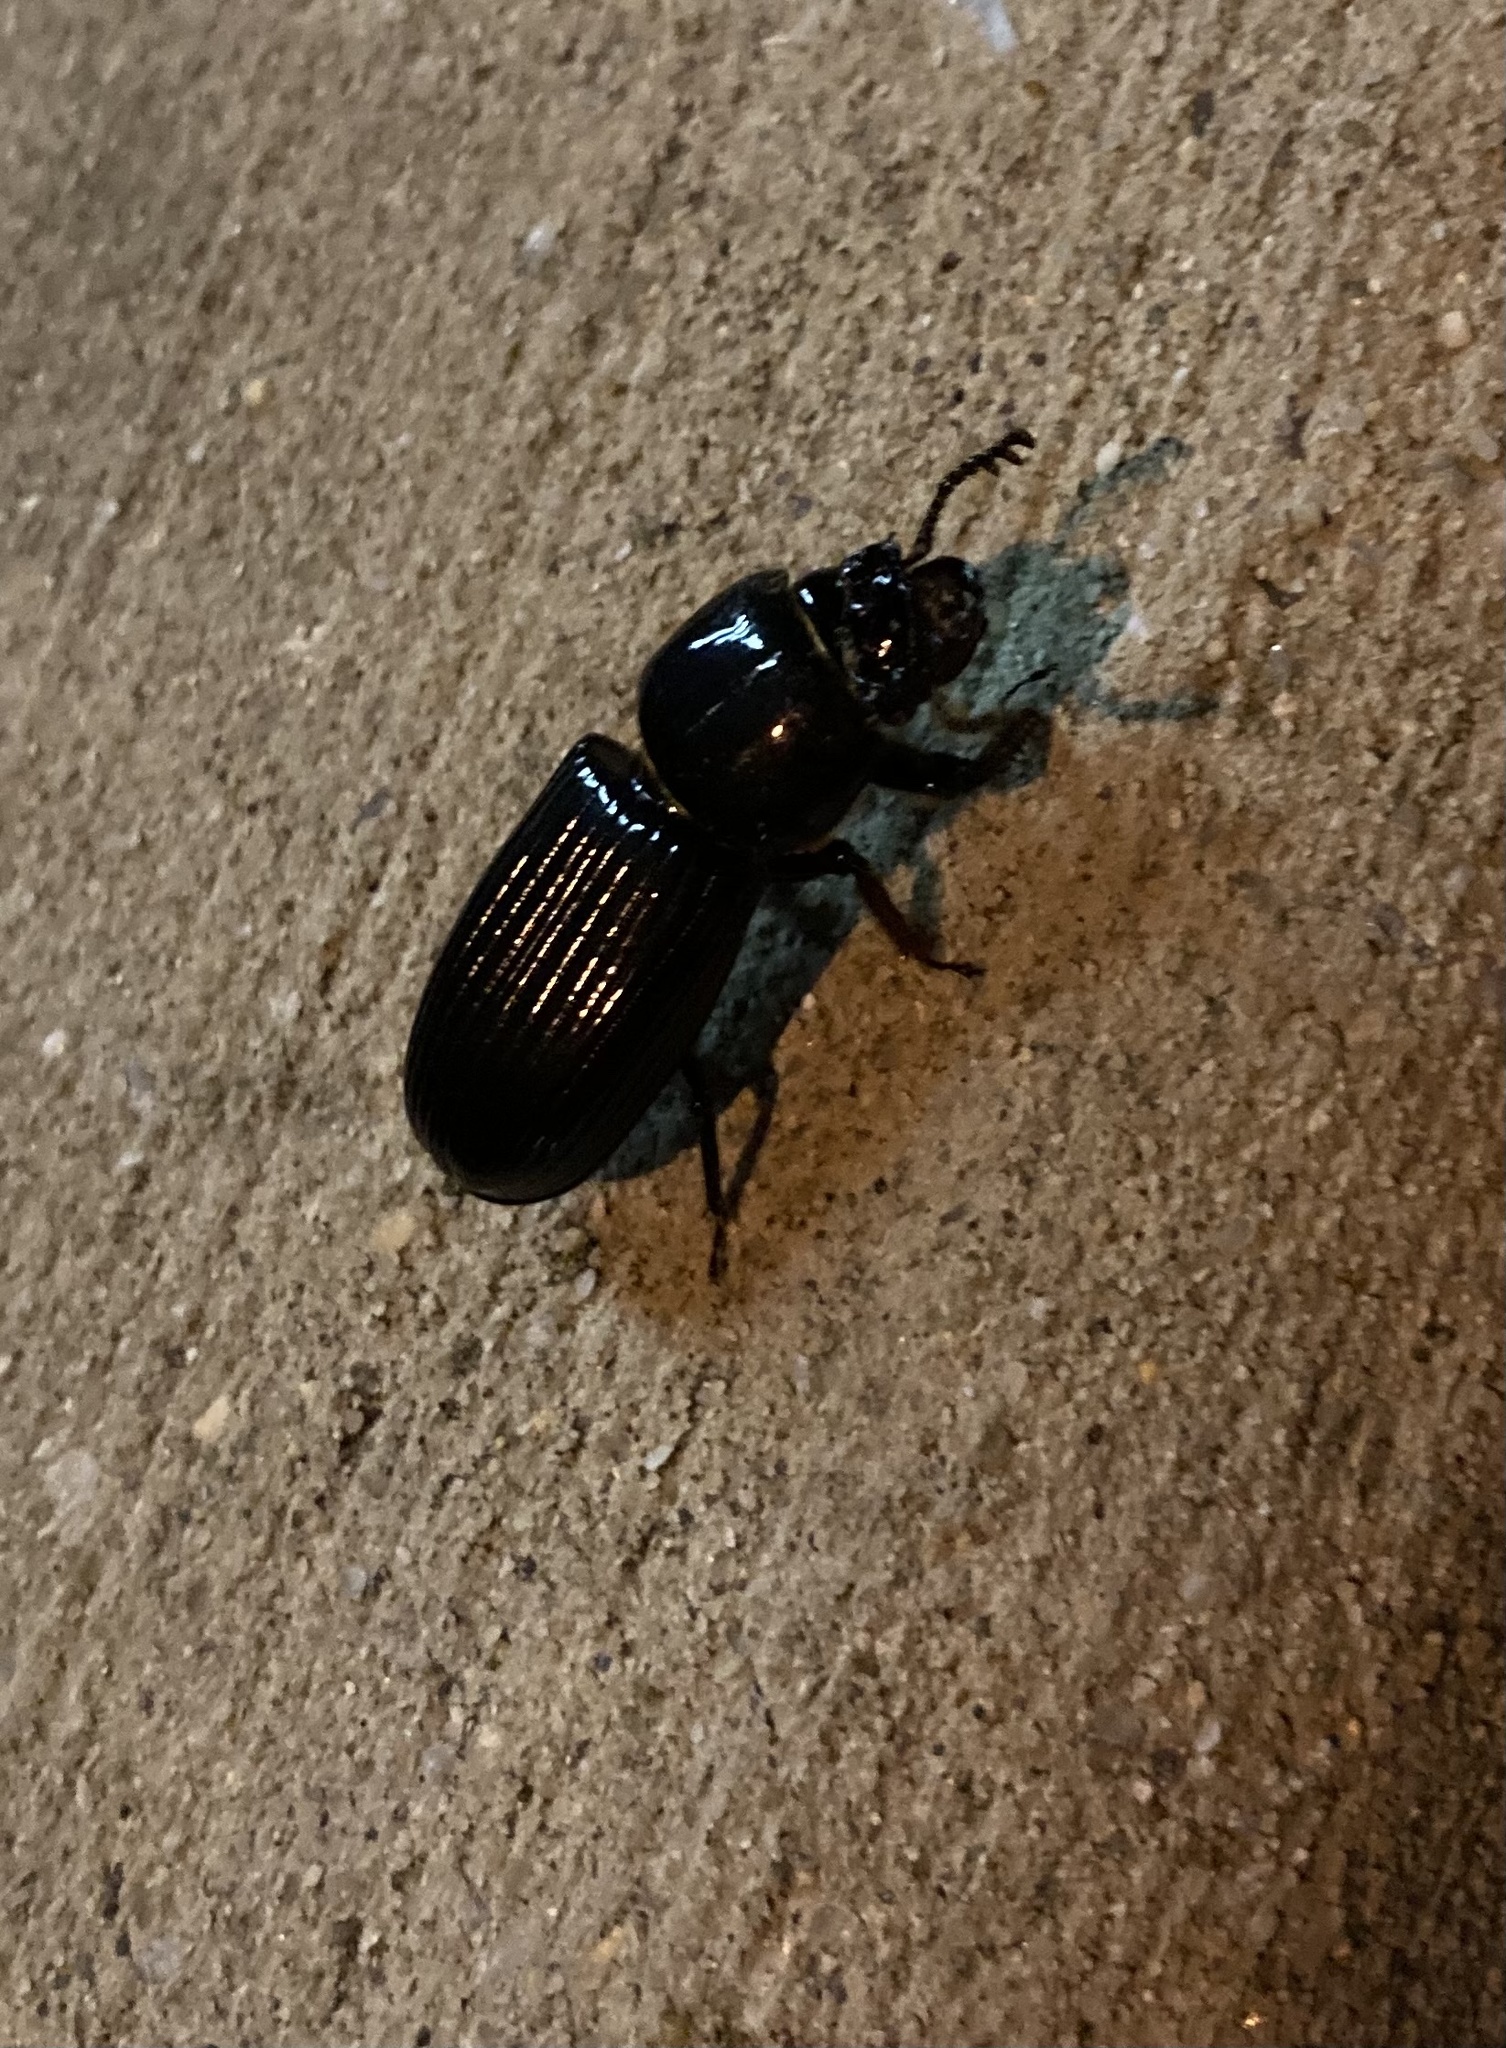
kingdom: Animalia
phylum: Arthropoda
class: Insecta
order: Coleoptera
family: Passalidae
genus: Odontotaenius
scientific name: Odontotaenius disjunctus
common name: Patent leather beetle
